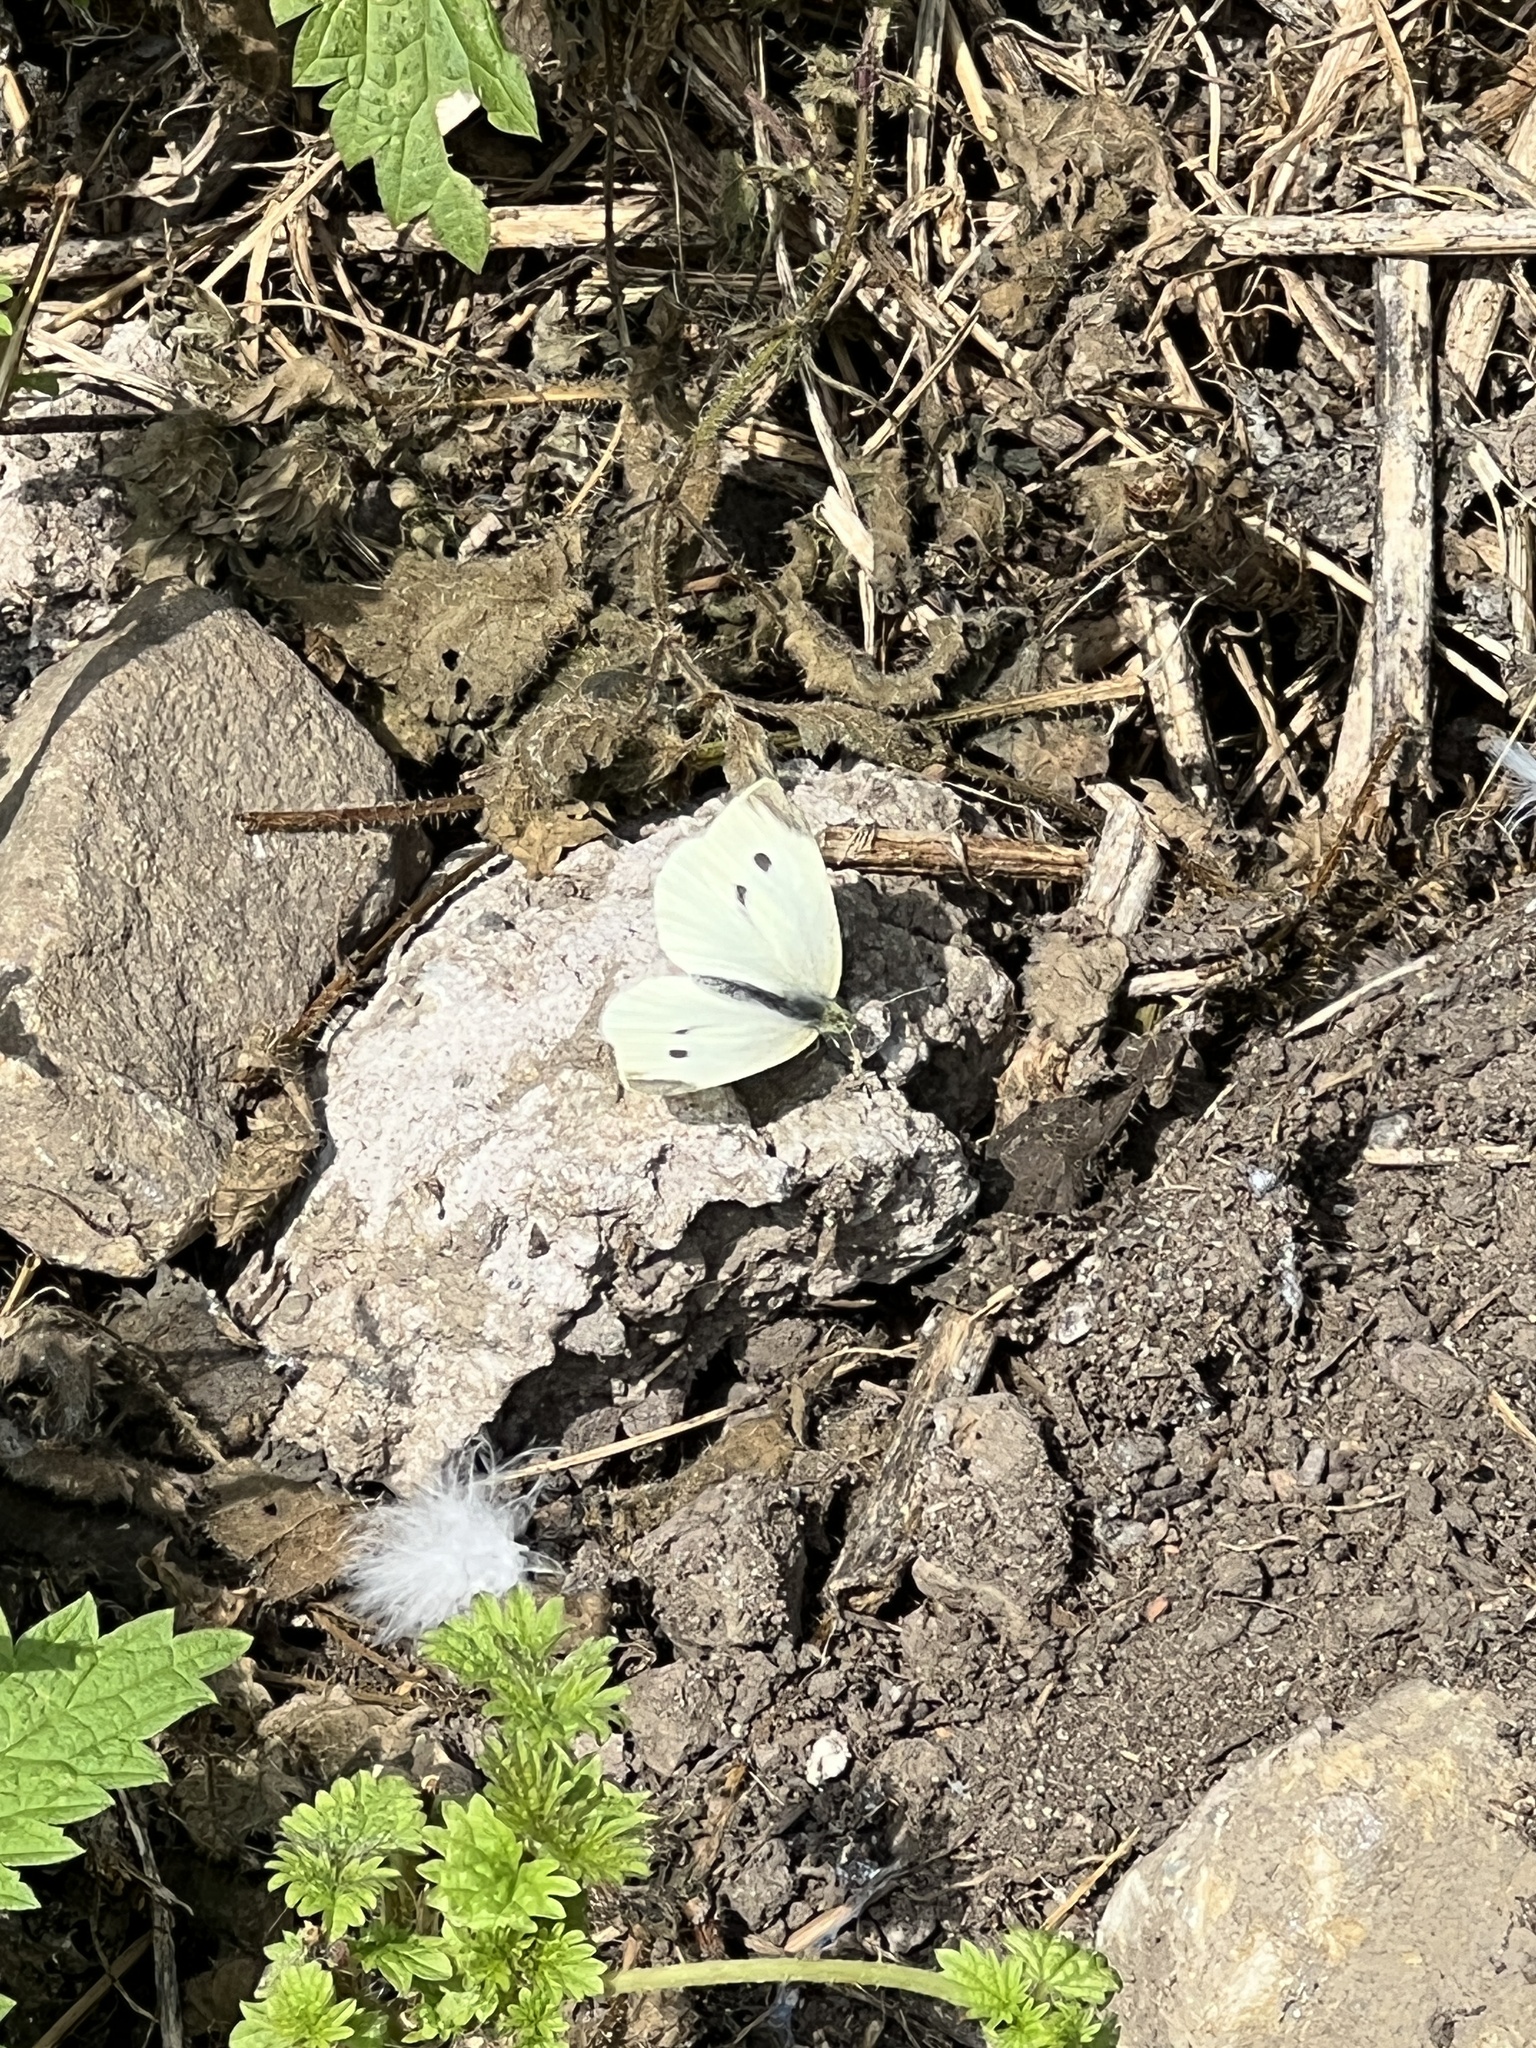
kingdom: Animalia
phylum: Arthropoda
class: Insecta
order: Lepidoptera
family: Pieridae
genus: Pieris
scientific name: Pieris rapae
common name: Small white
